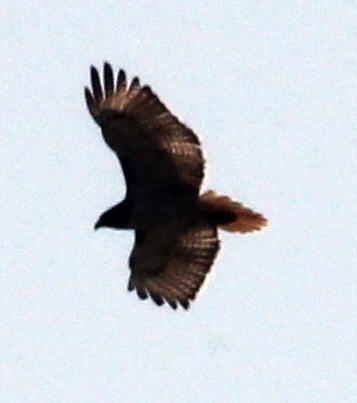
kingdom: Animalia
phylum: Chordata
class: Aves
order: Accipitriformes
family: Accipitridae
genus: Buteo
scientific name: Buteo jamaicensis
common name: Red-tailed hawk
